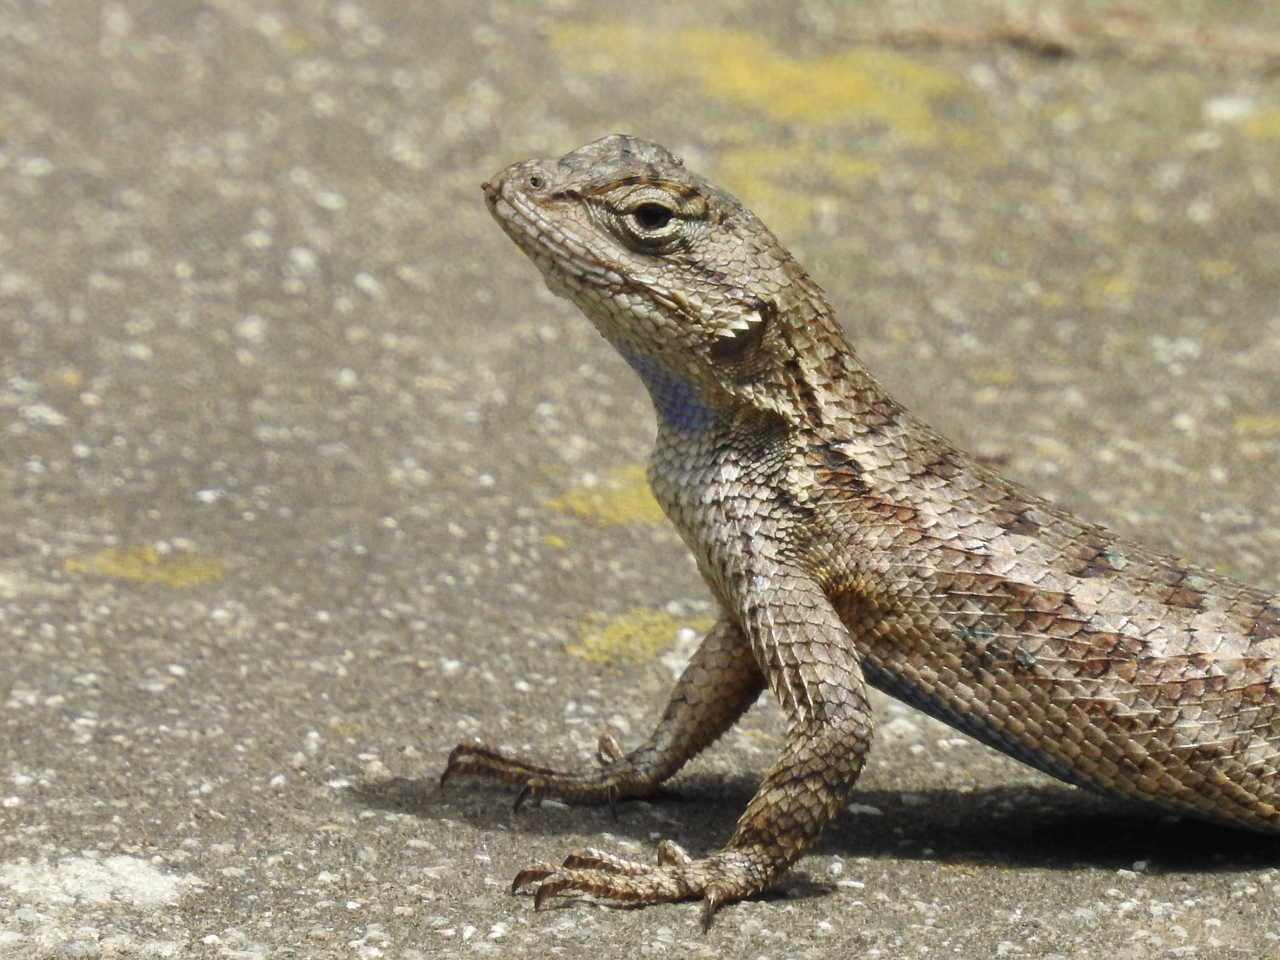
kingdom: Animalia
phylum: Chordata
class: Squamata
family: Phrynosomatidae
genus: Sceloporus
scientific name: Sceloporus occidentalis
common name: Western fence lizard
